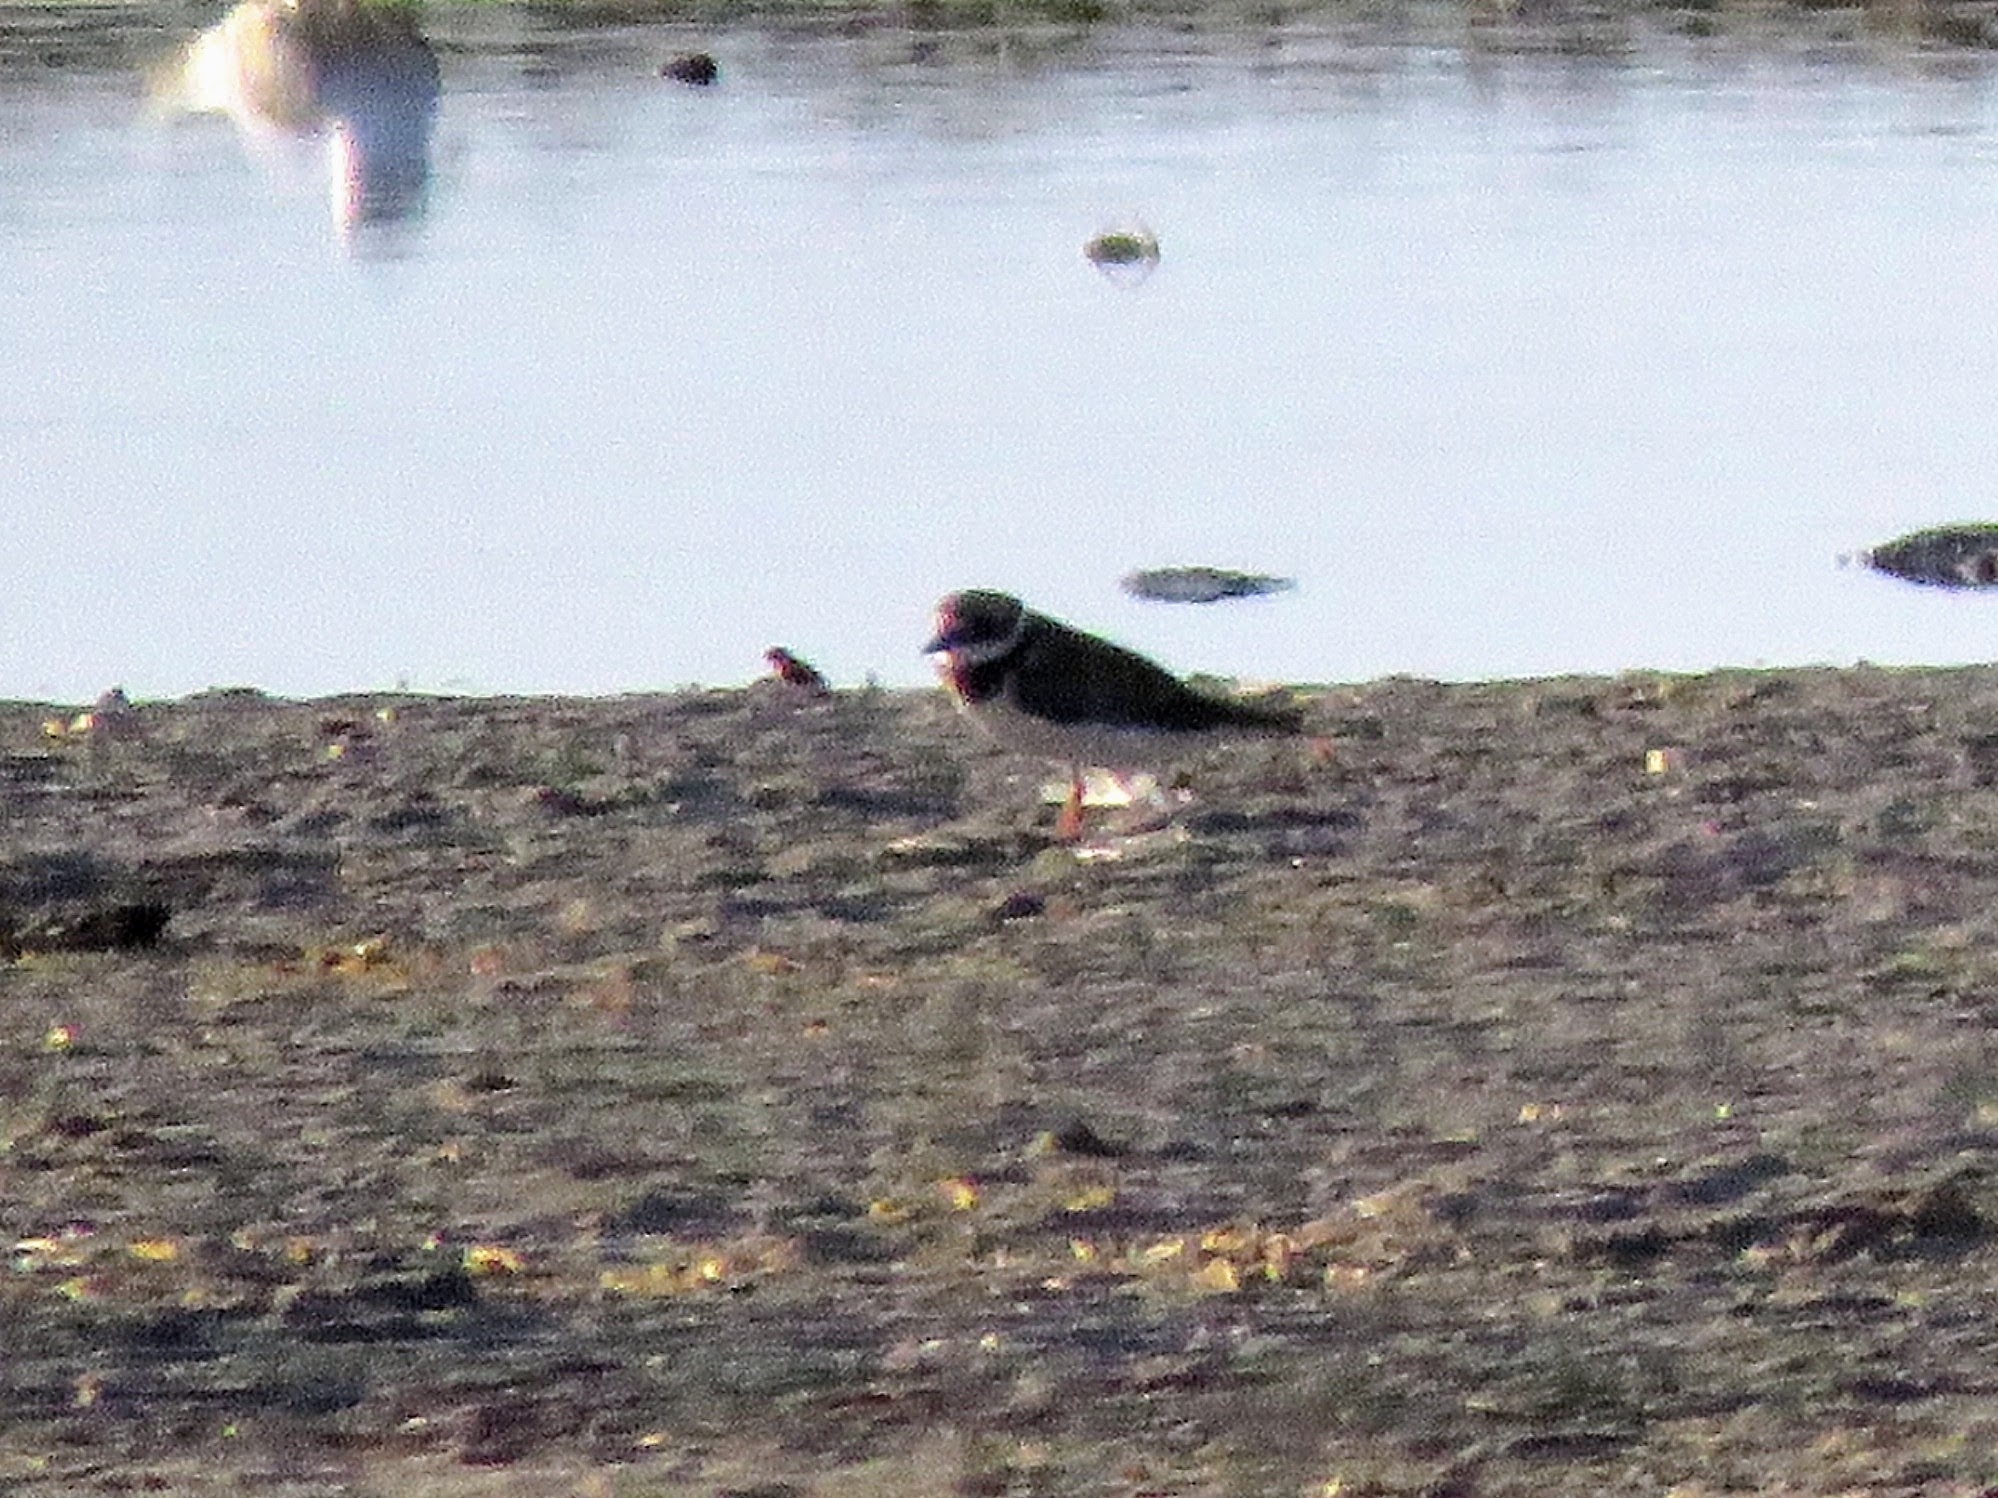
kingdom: Animalia
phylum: Chordata
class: Aves
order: Charadriiformes
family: Charadriidae
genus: Charadrius
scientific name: Charadrius hiaticula
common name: Common ringed plover
